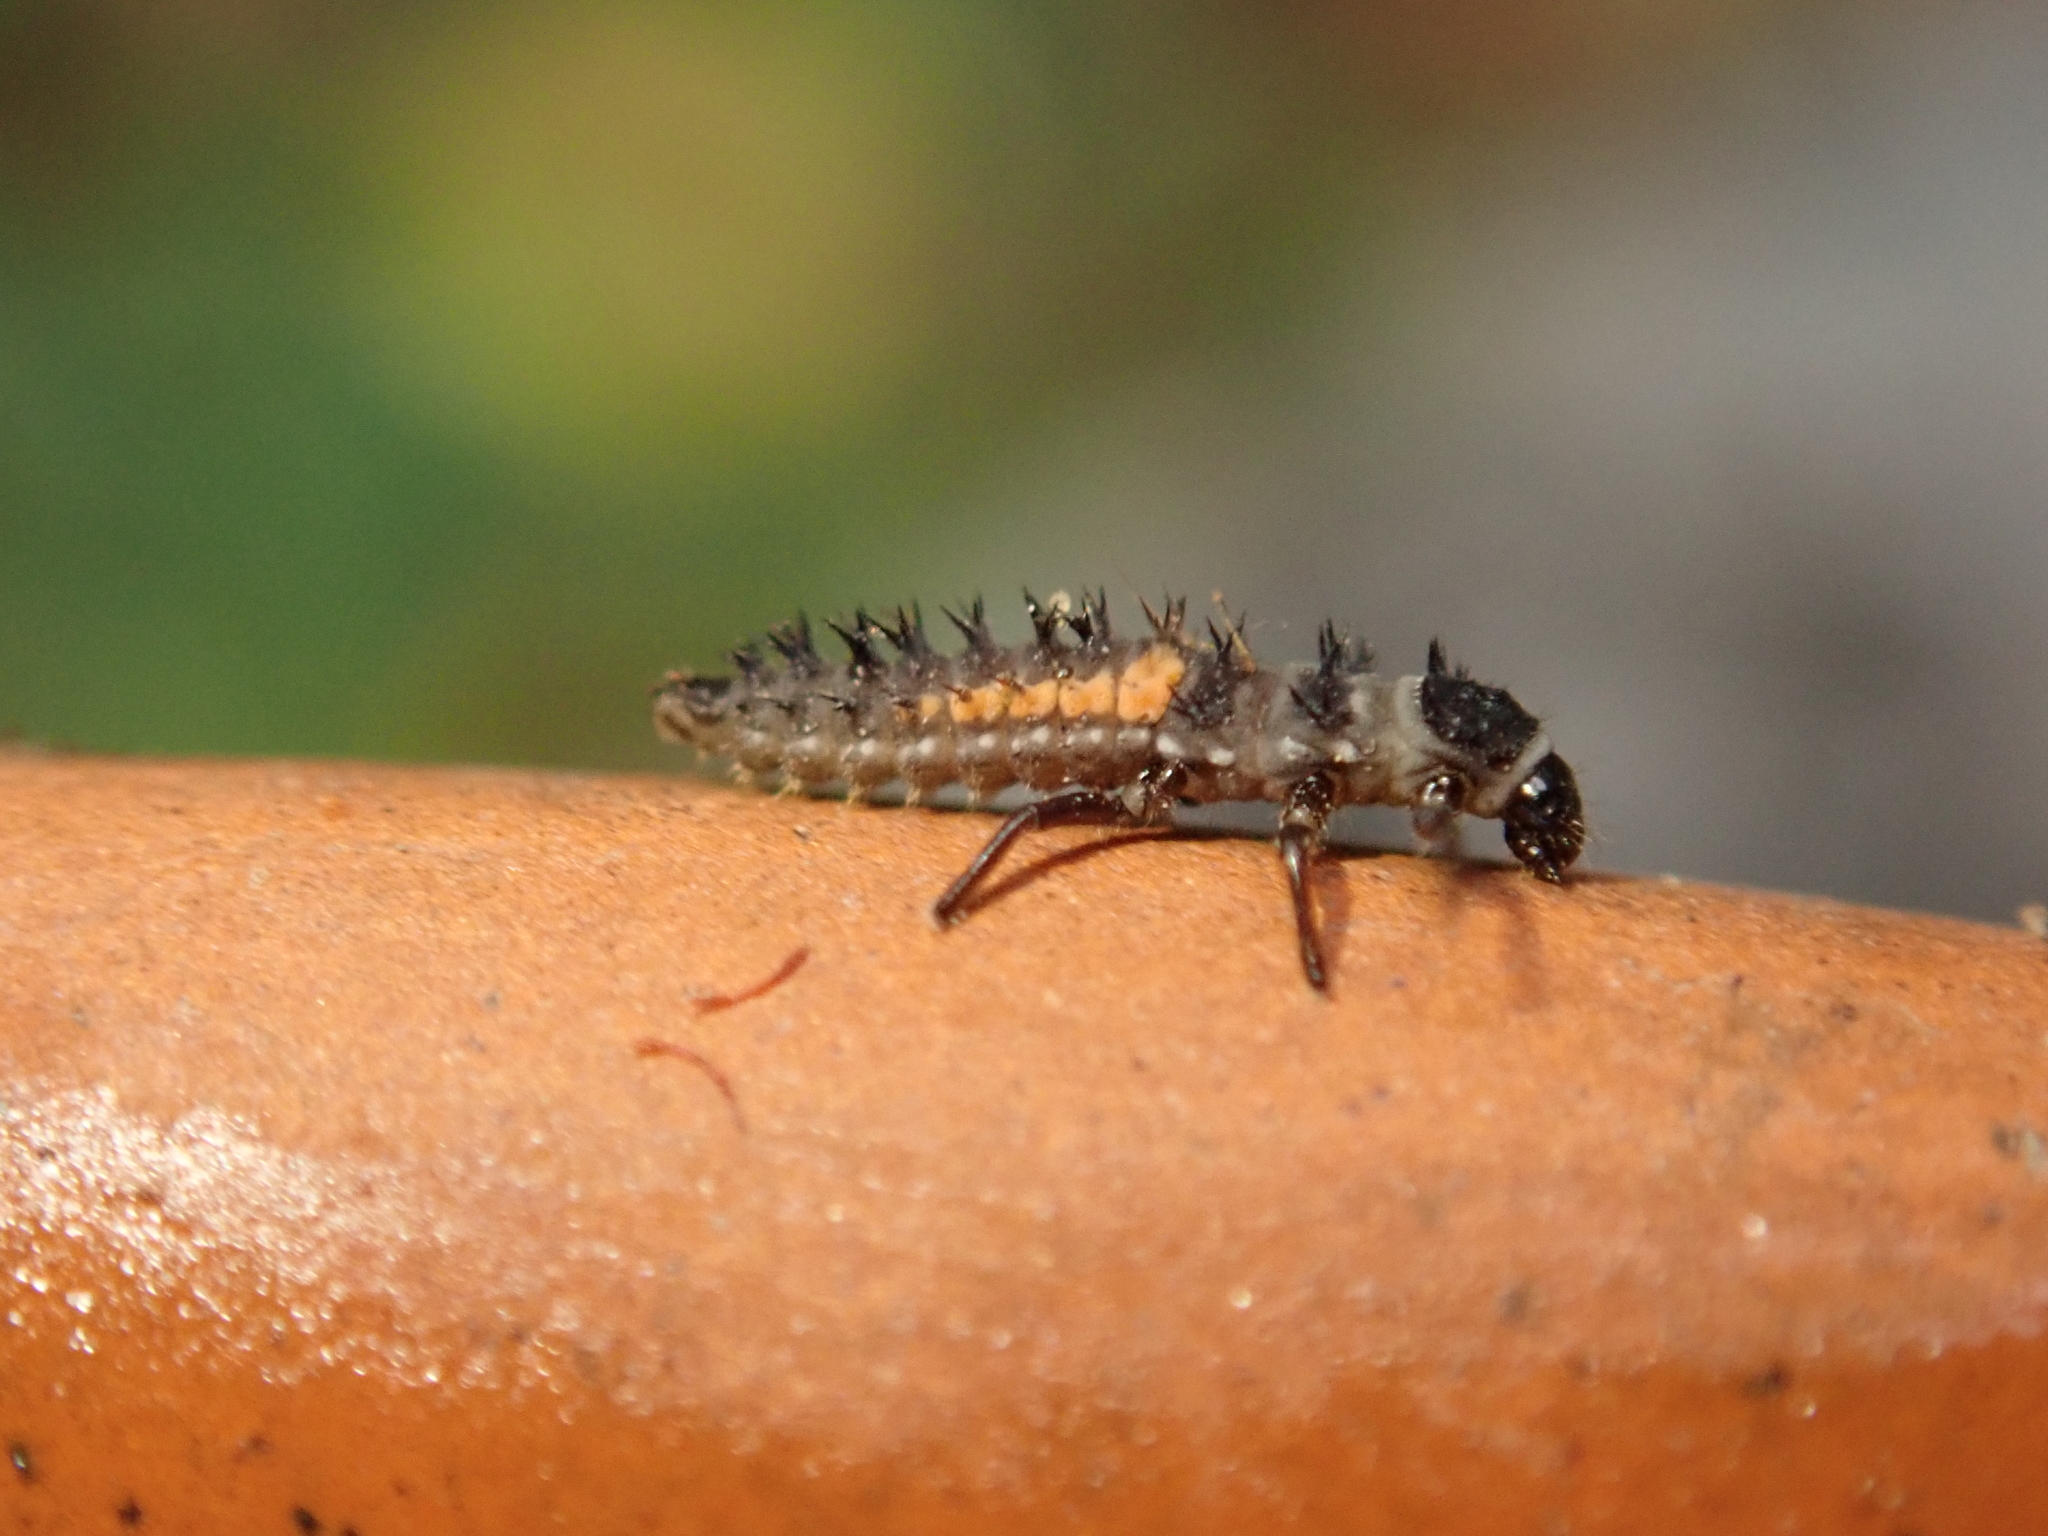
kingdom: Animalia
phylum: Arthropoda
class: Insecta
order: Coleoptera
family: Coccinellidae
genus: Harmonia
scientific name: Harmonia axyridis
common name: Harlequin ladybird
